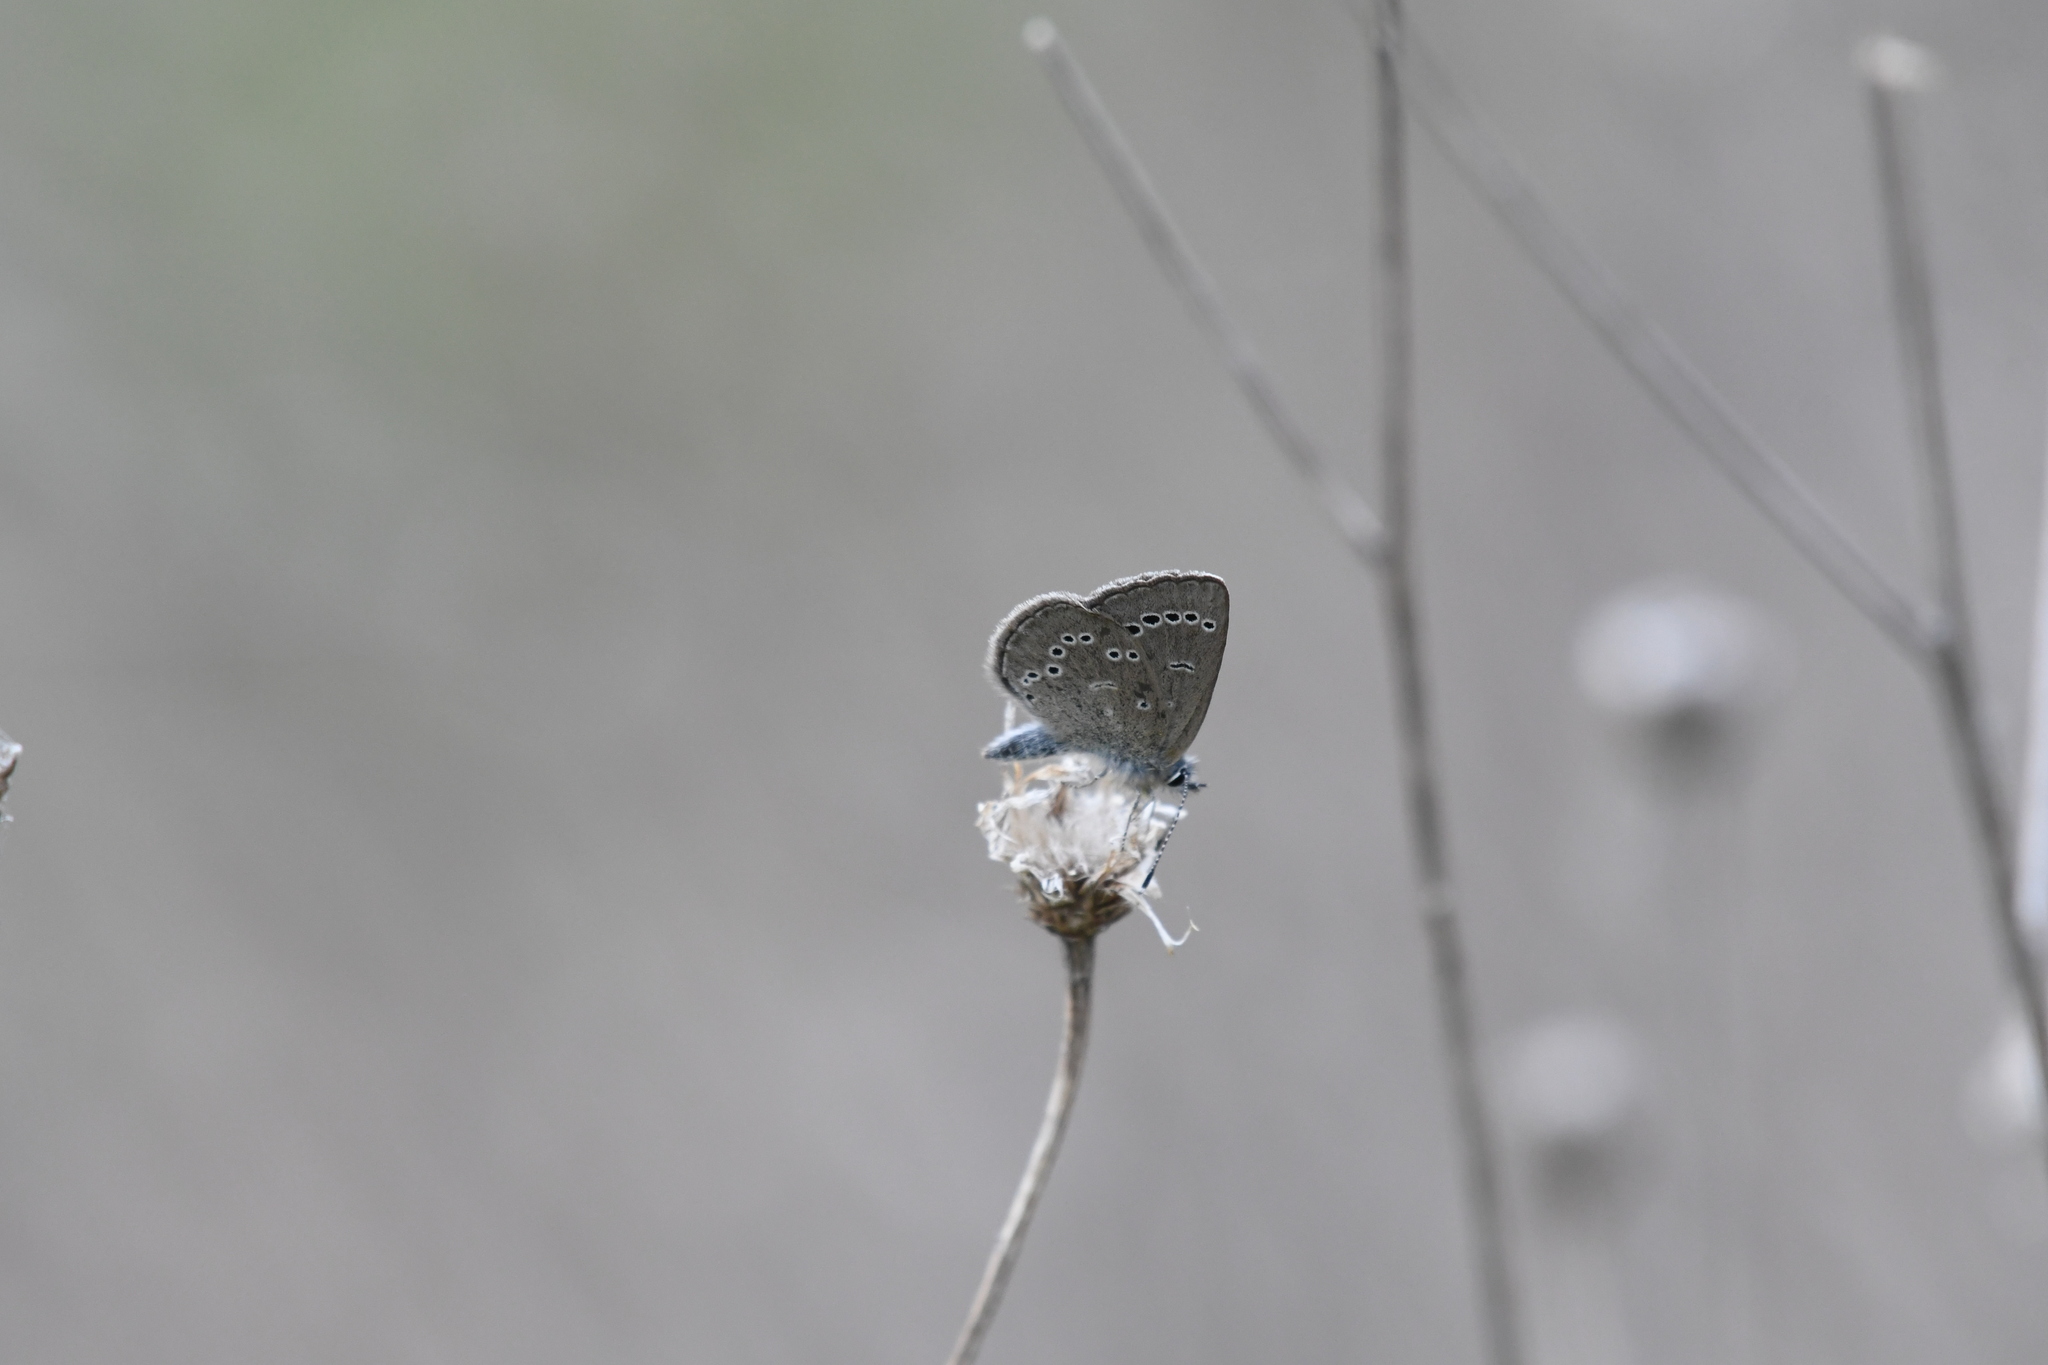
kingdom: Animalia
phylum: Arthropoda
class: Insecta
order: Lepidoptera
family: Lycaenidae
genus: Glaucopsyche
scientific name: Glaucopsyche lygdamus
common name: Silvery blue
